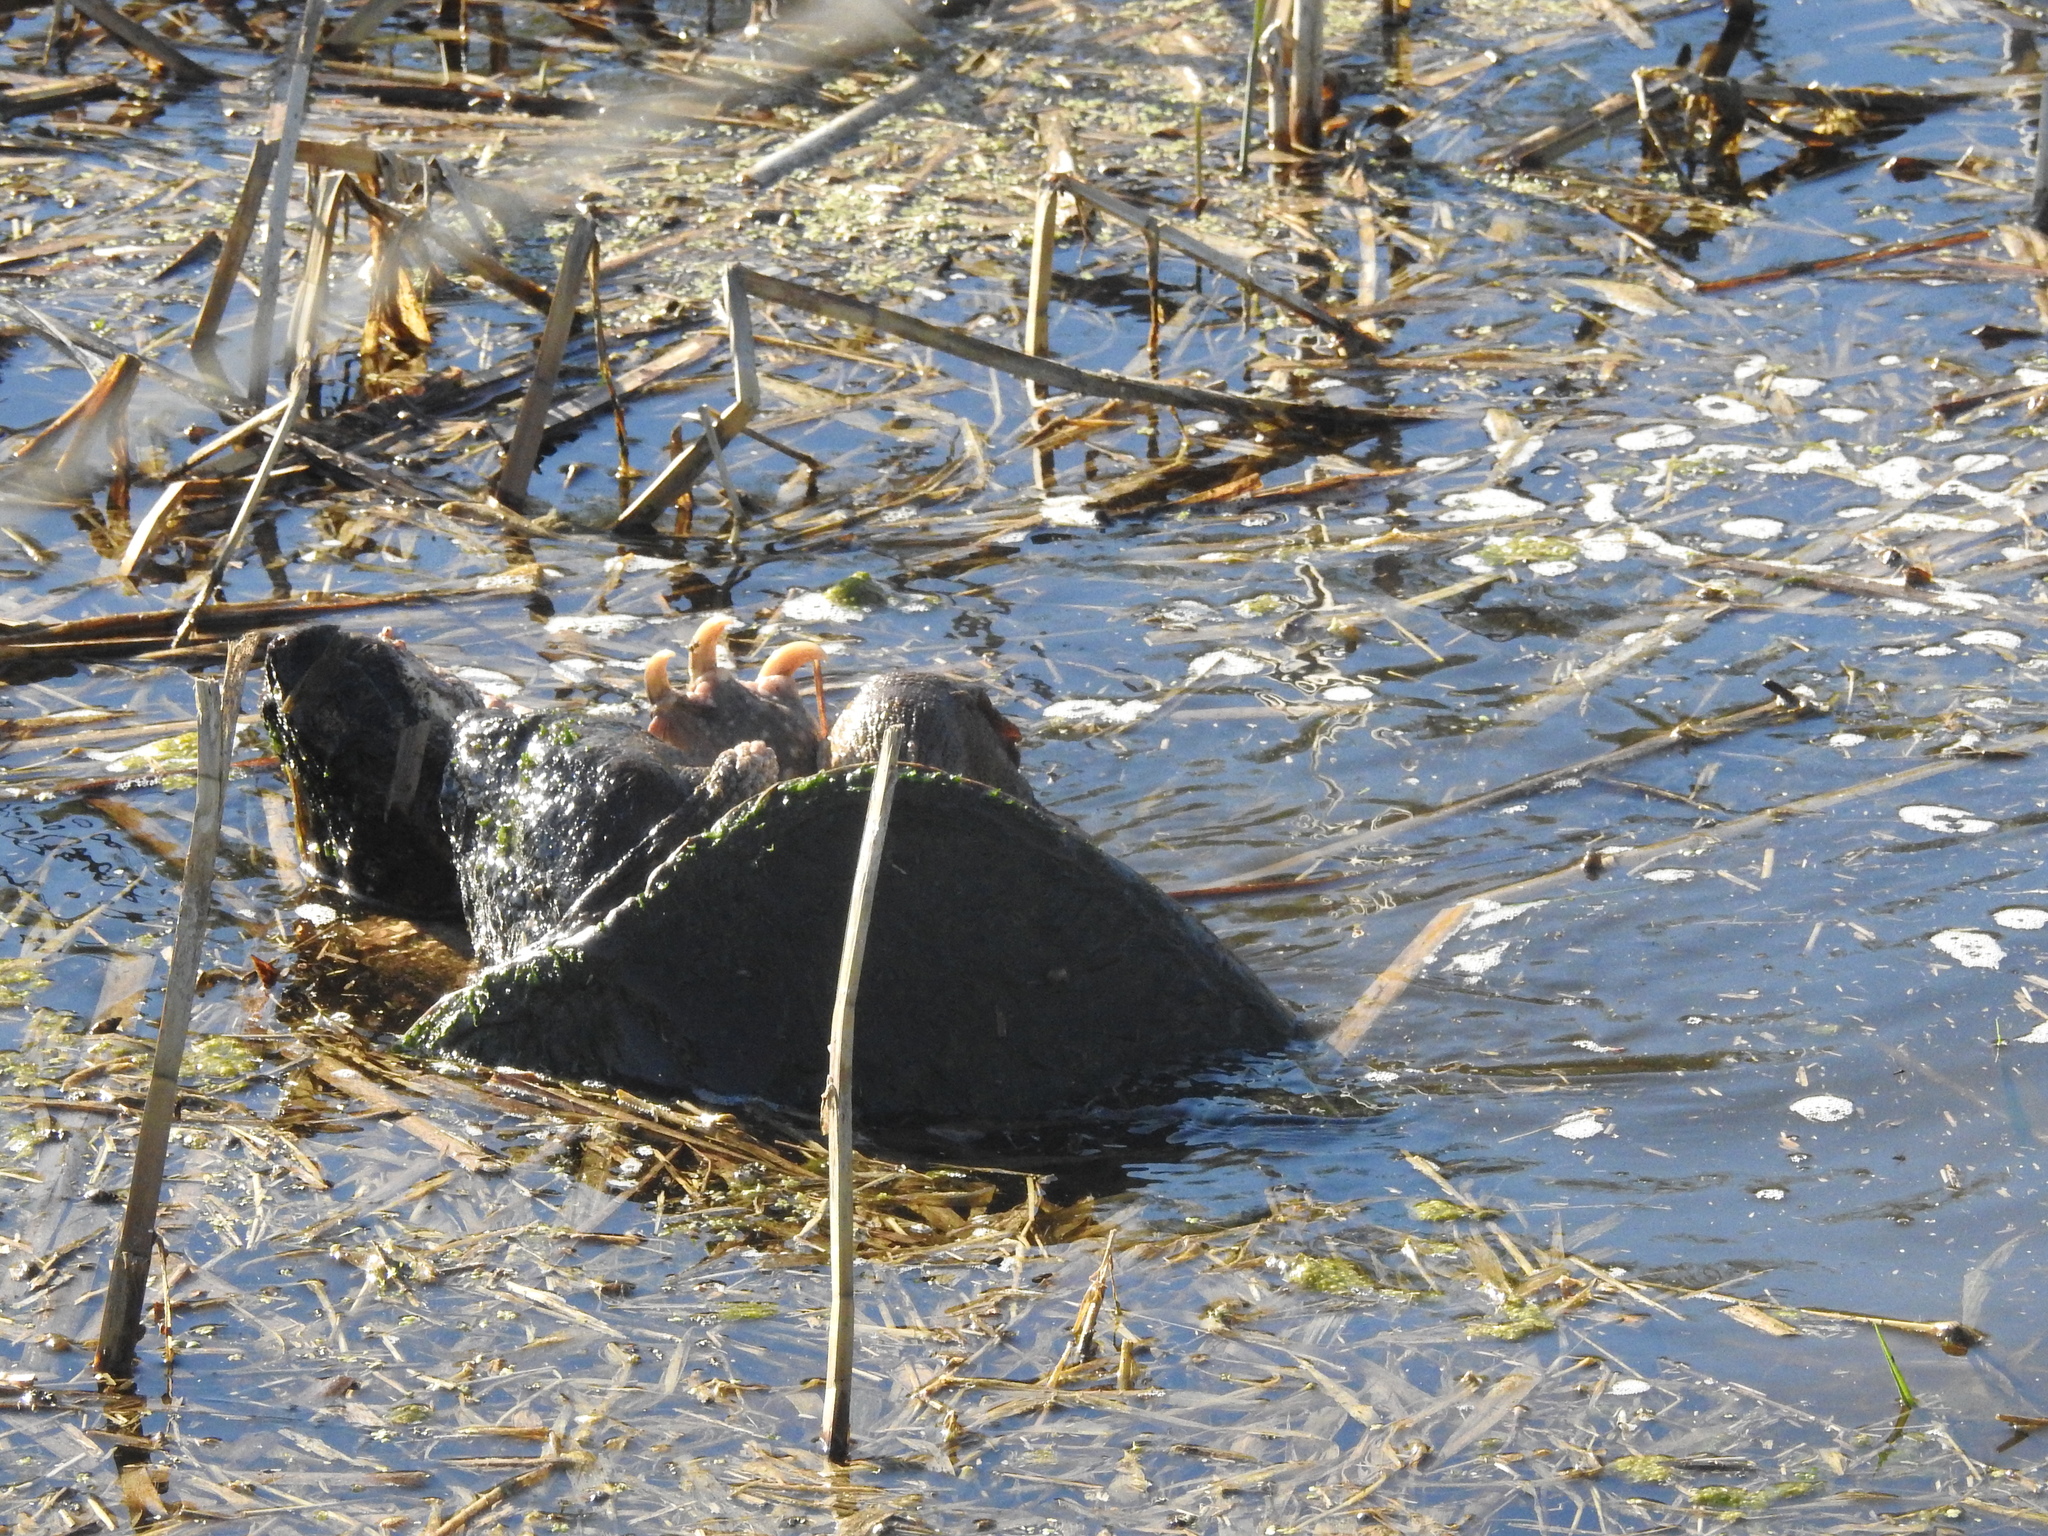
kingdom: Animalia
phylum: Chordata
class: Testudines
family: Chelydridae
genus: Chelydra
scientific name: Chelydra serpentina
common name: Common snapping turtle
